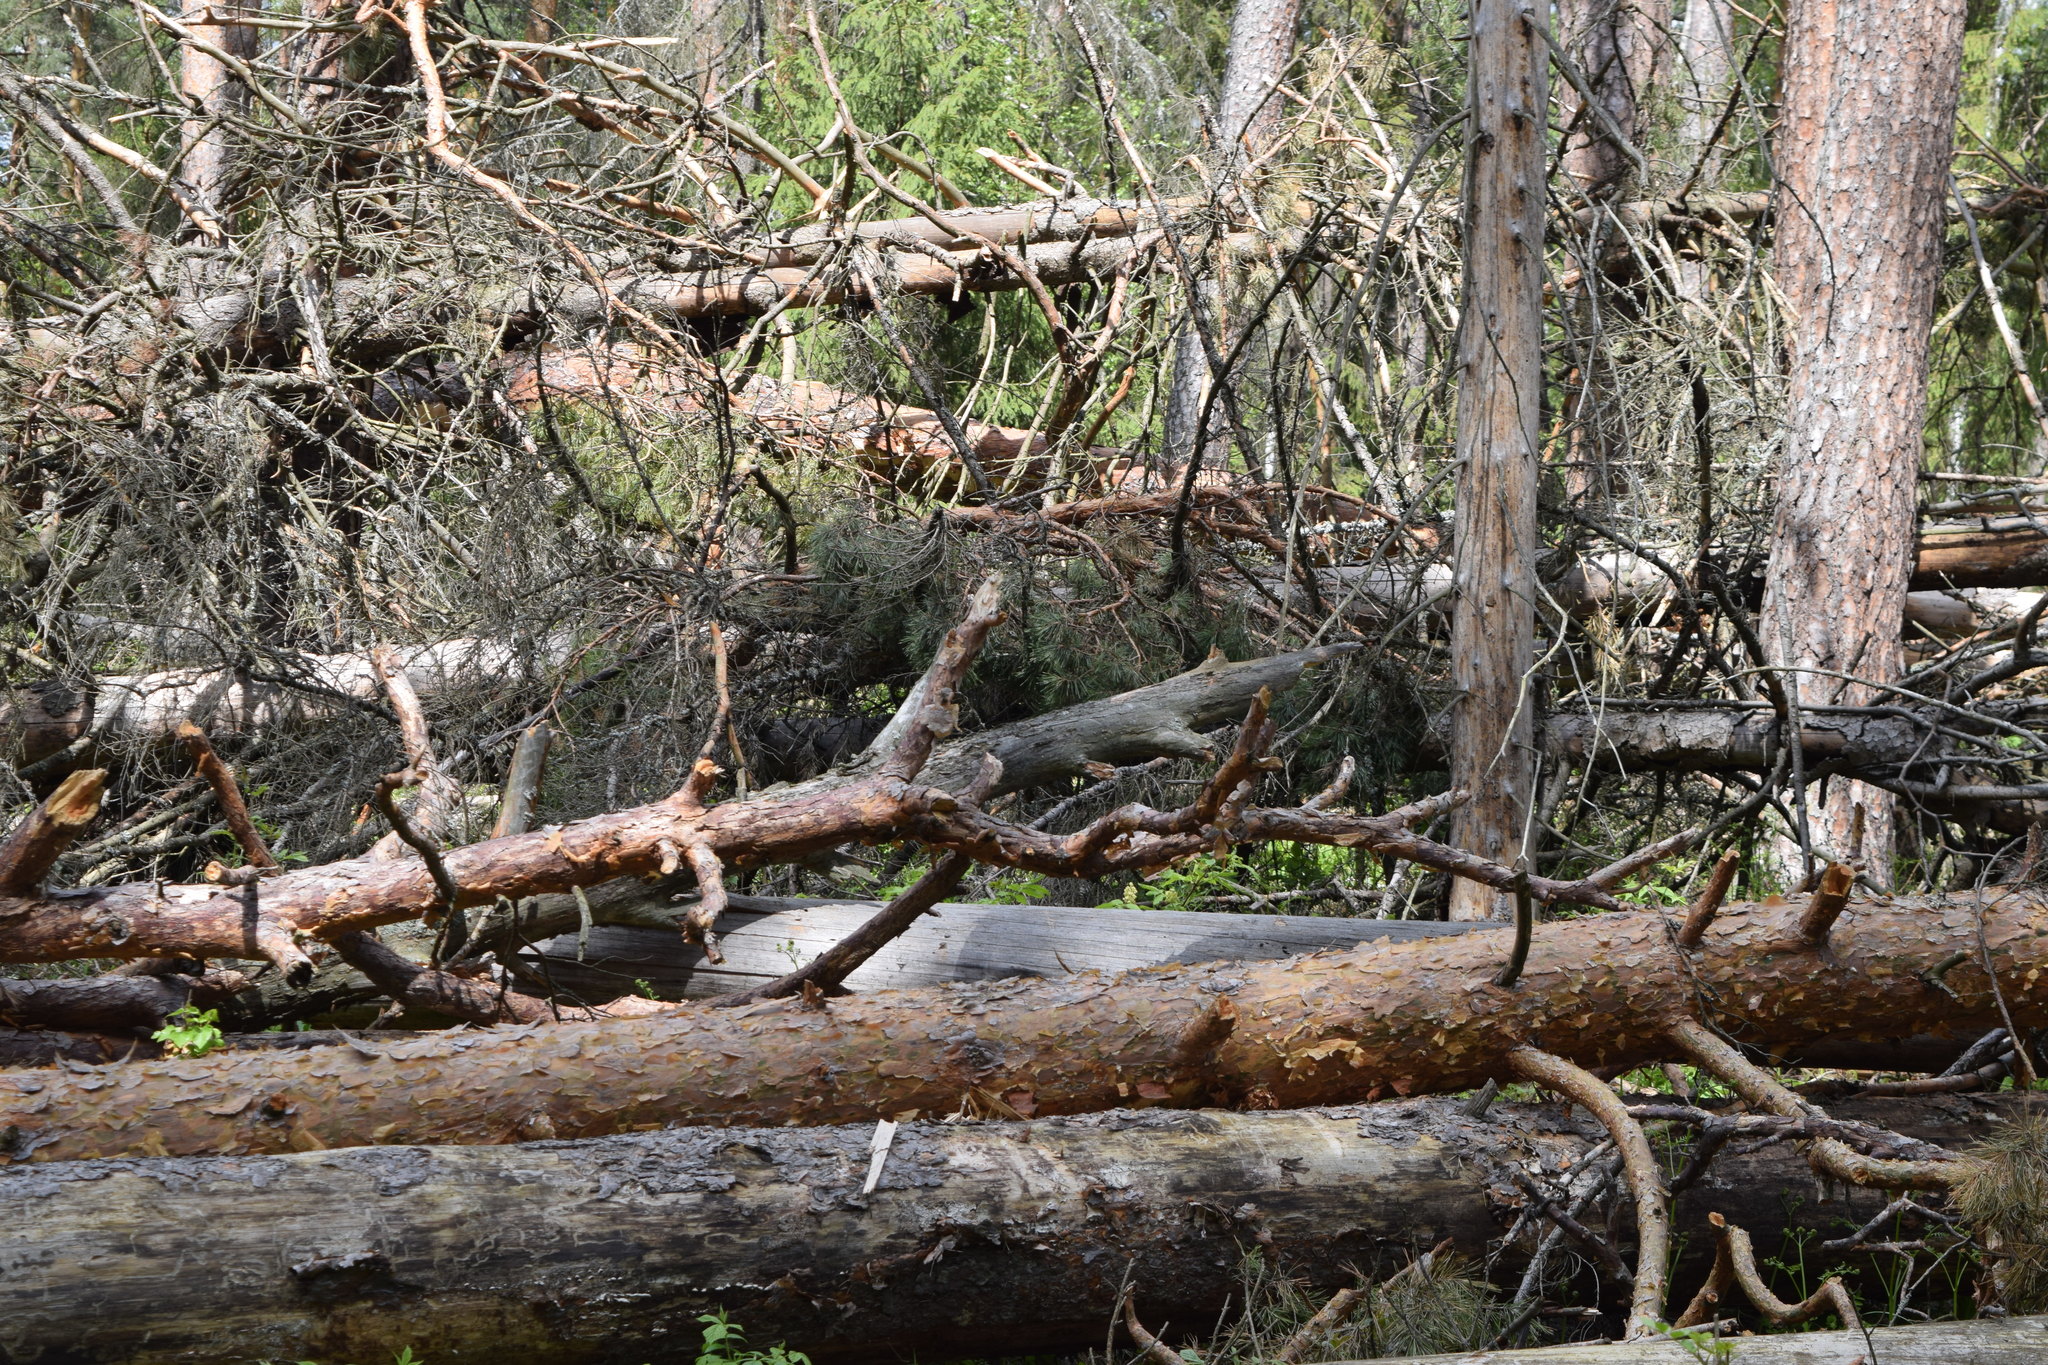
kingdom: Plantae
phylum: Tracheophyta
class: Pinopsida
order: Pinales
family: Pinaceae
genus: Pinus
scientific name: Pinus sylvestris
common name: Scots pine
